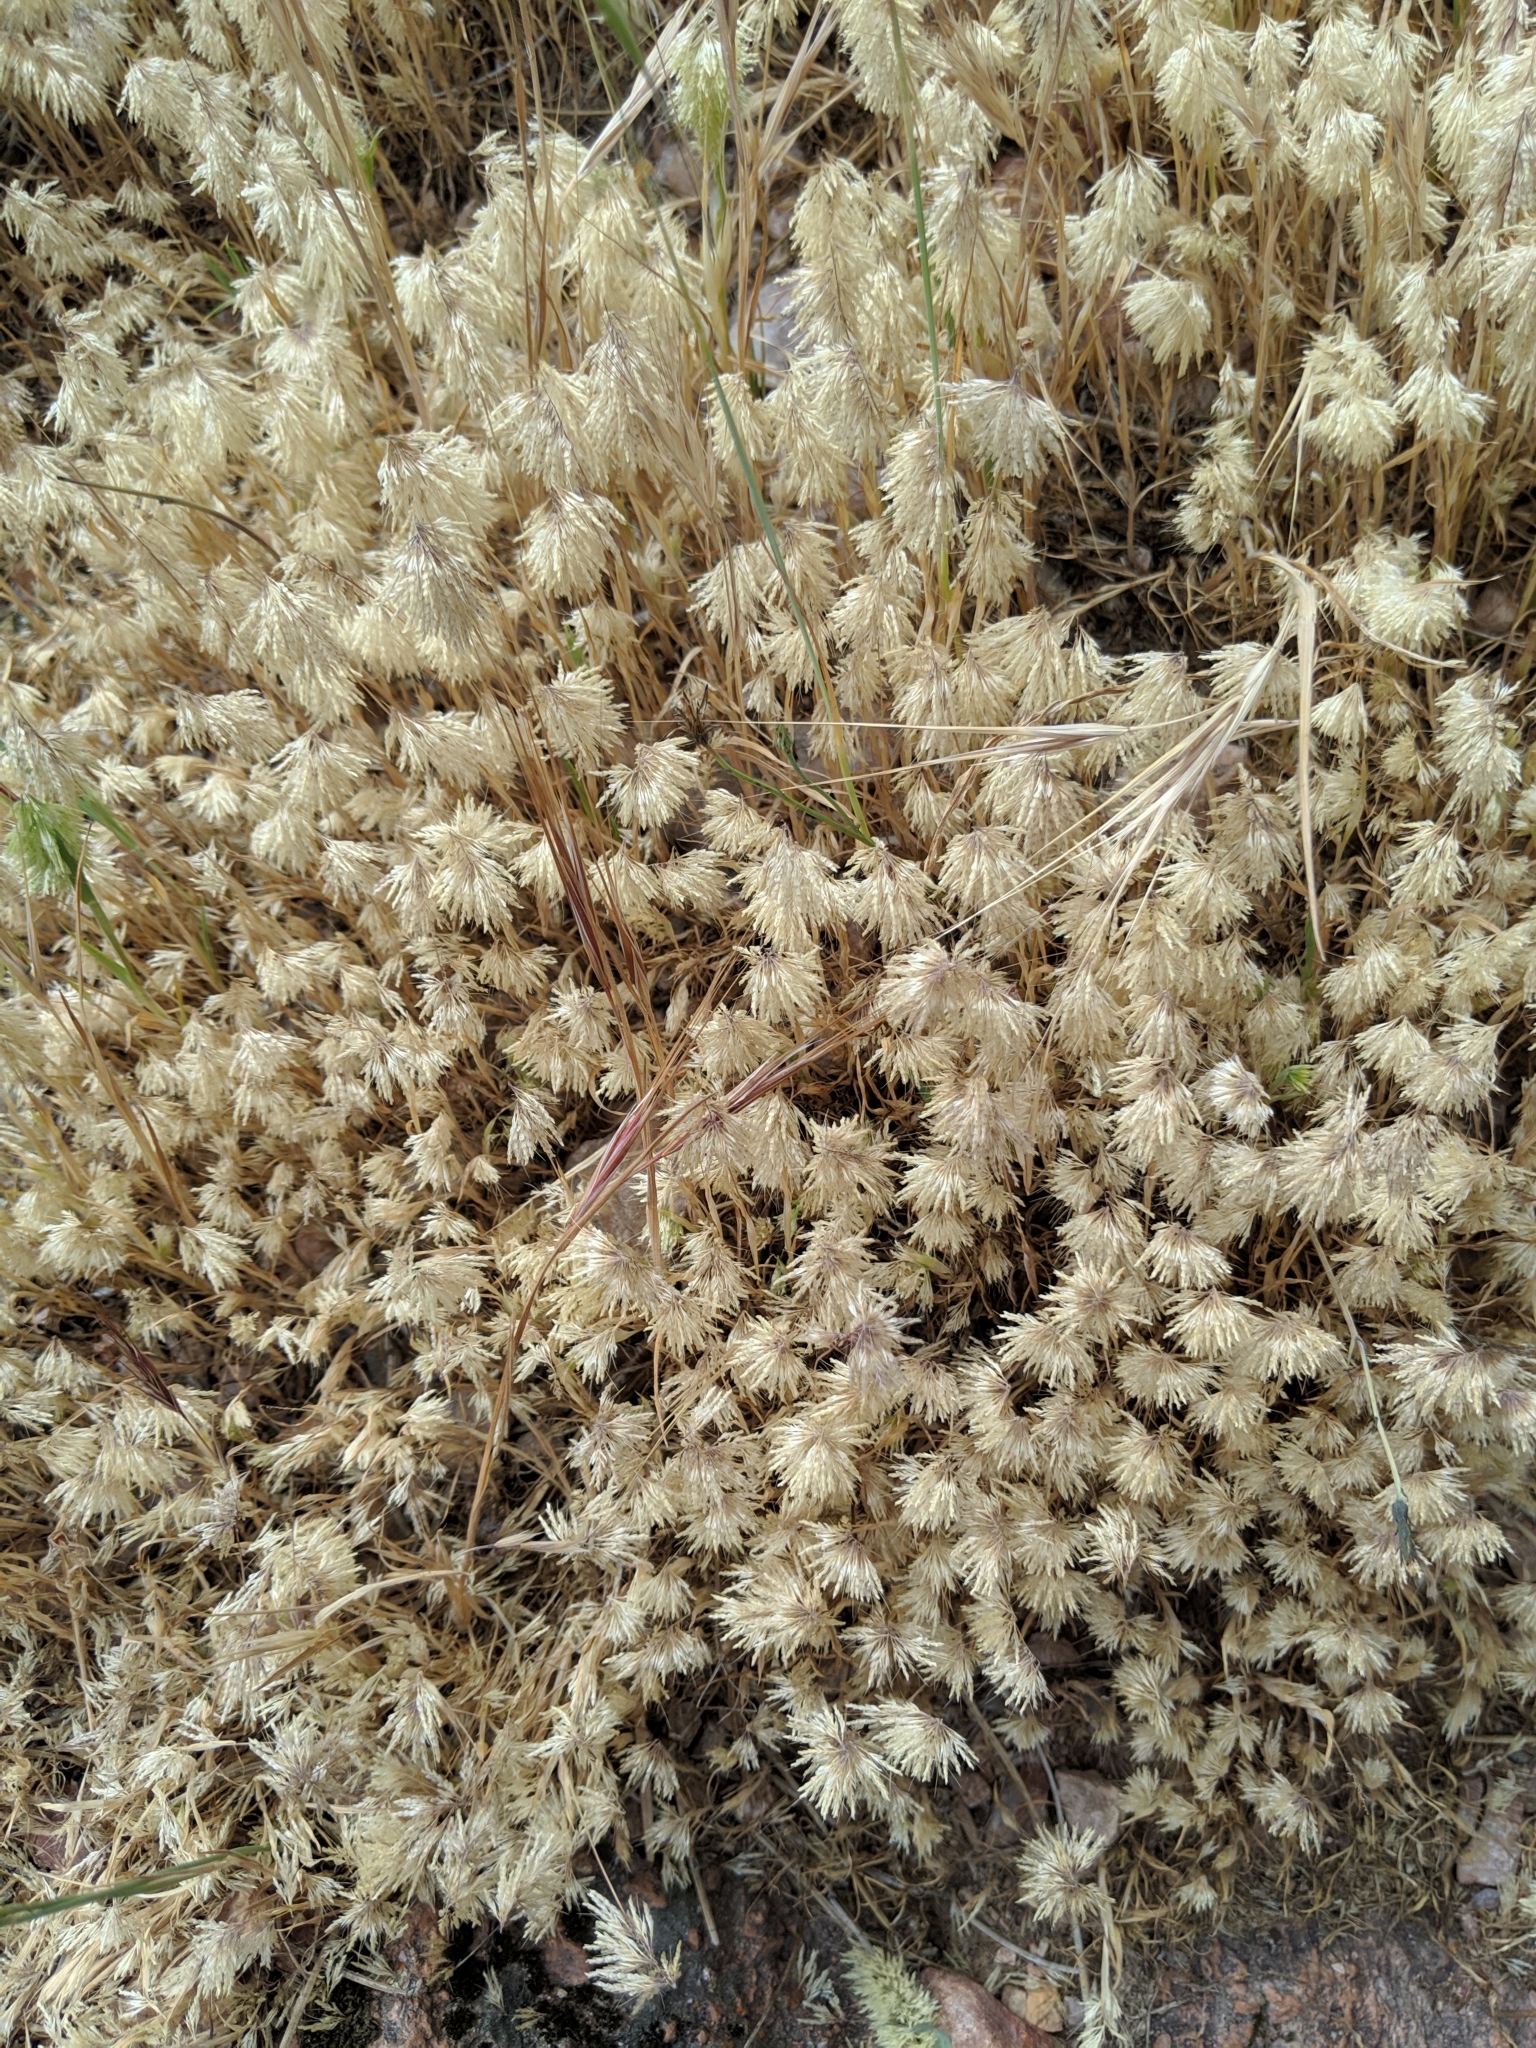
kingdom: Plantae
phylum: Tracheophyta
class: Liliopsida
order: Poales
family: Poaceae
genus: Lamarckia
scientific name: Lamarckia aurea
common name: Golden dog's-tail
